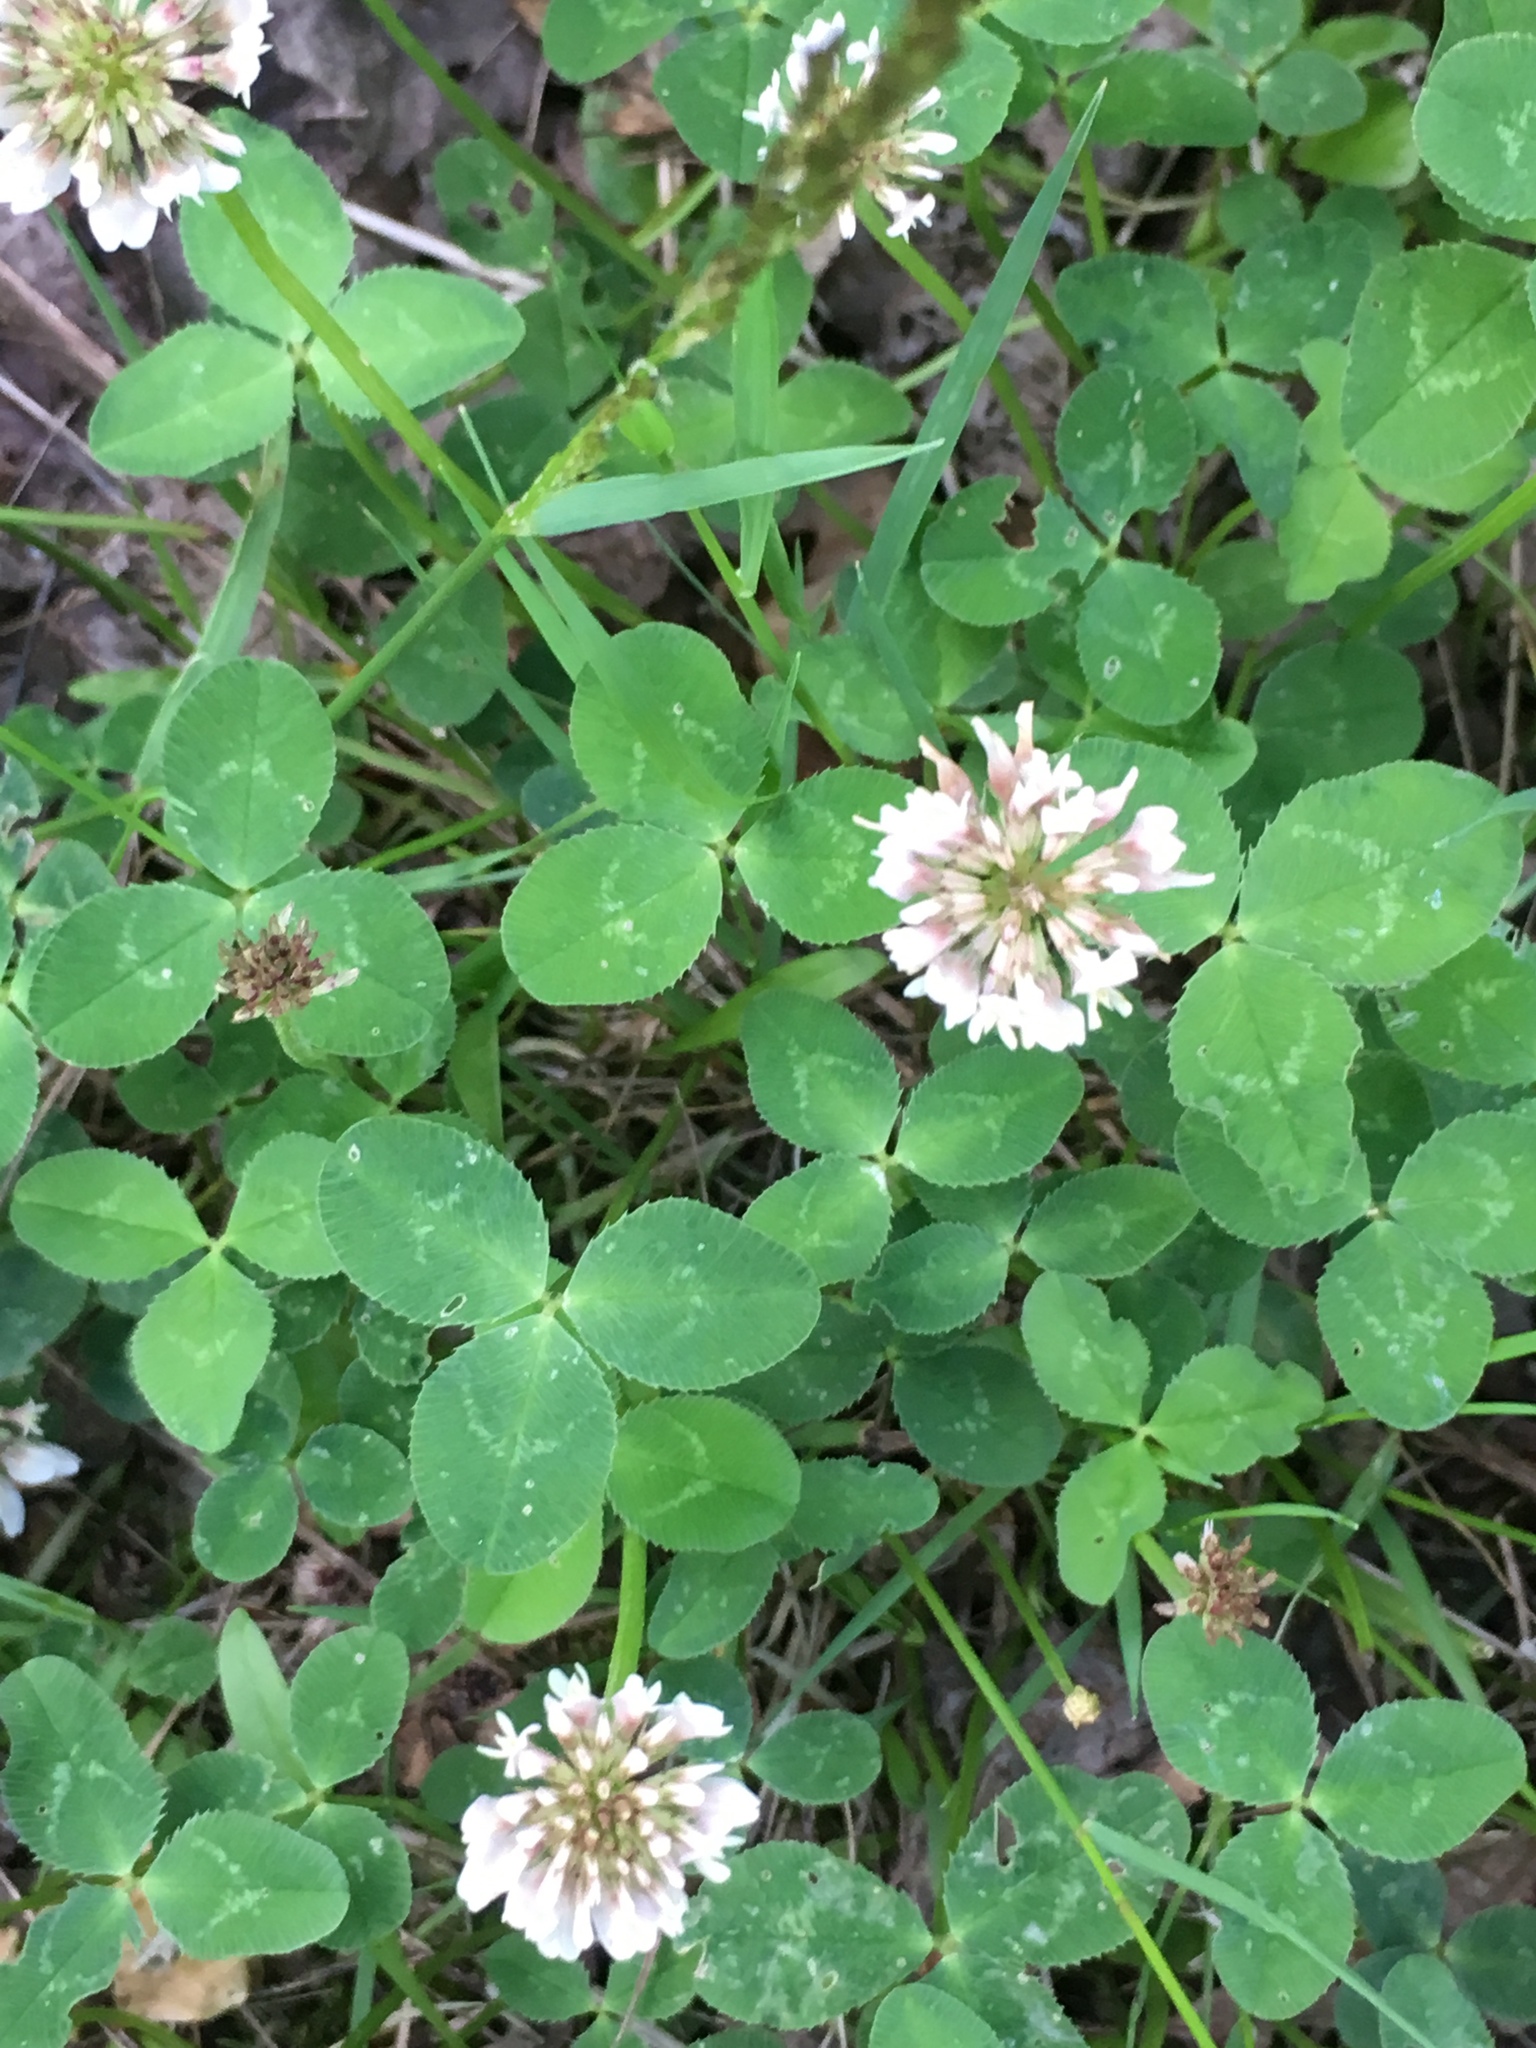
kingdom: Plantae
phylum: Tracheophyta
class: Magnoliopsida
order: Fabales
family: Fabaceae
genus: Trifolium
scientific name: Trifolium repens
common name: White clover
